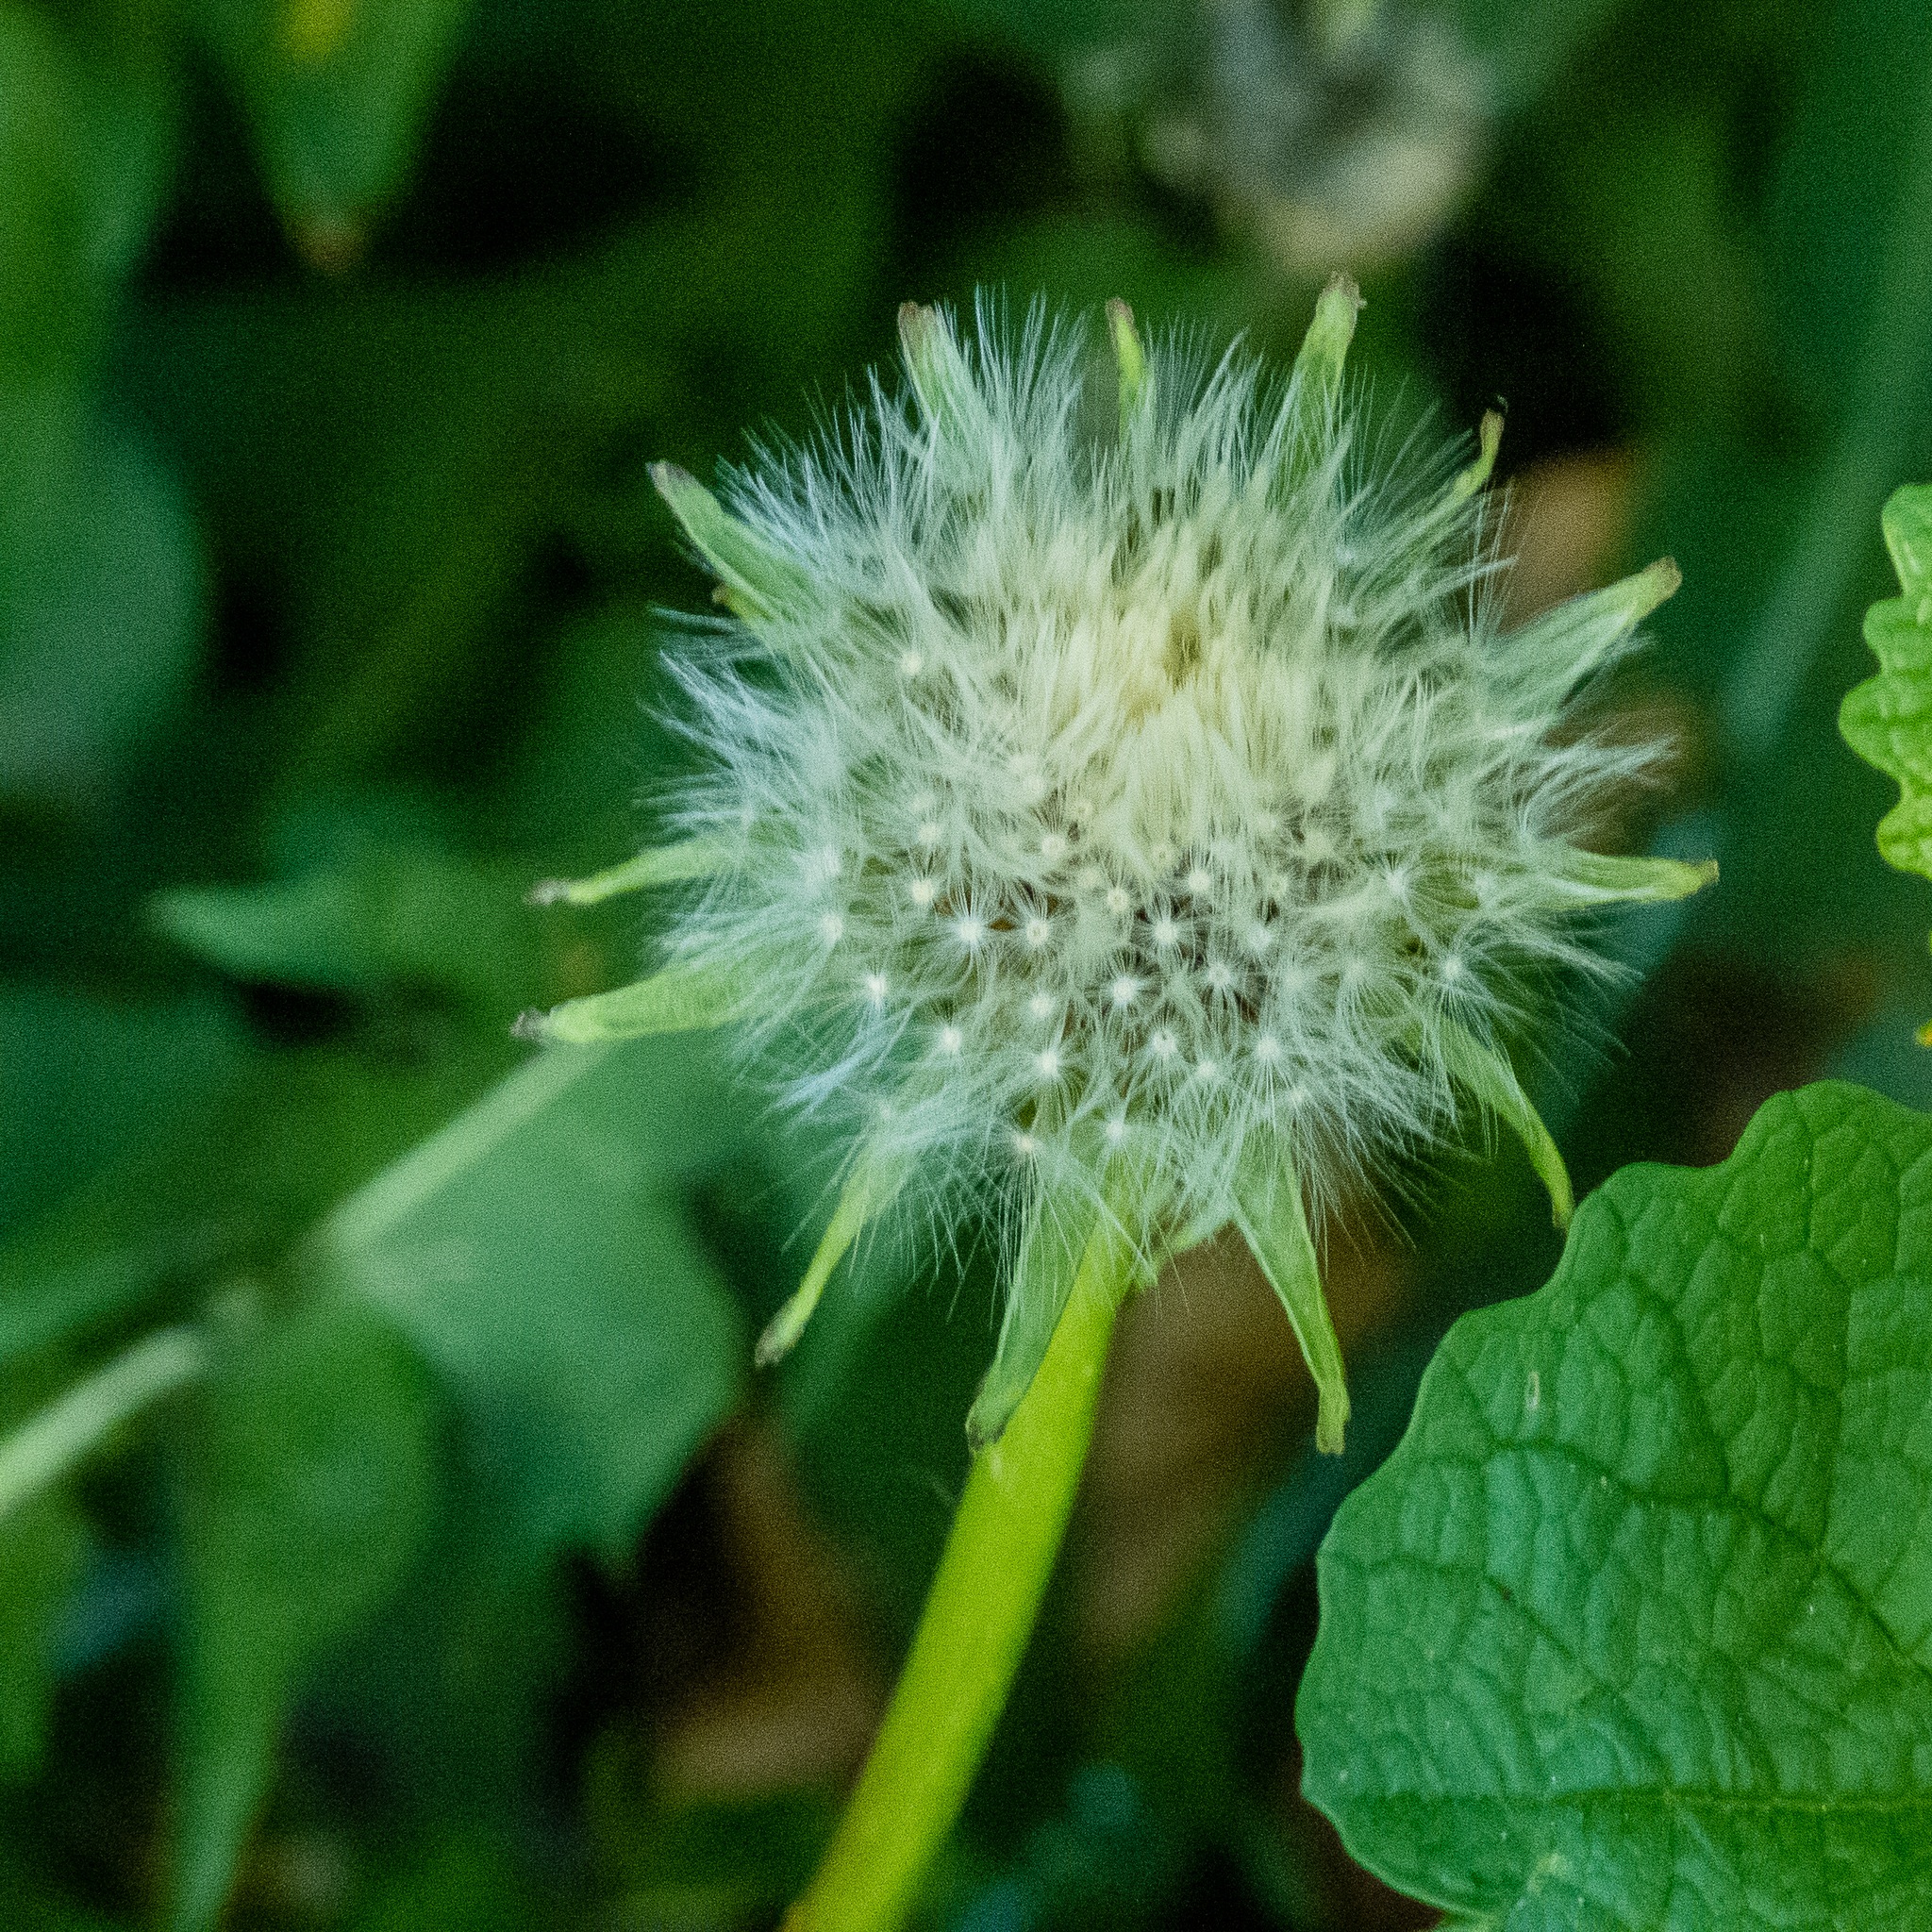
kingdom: Plantae
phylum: Tracheophyta
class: Magnoliopsida
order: Asterales
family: Asteraceae
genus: Tussilago
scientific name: Tussilago farfara
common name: Coltsfoot
